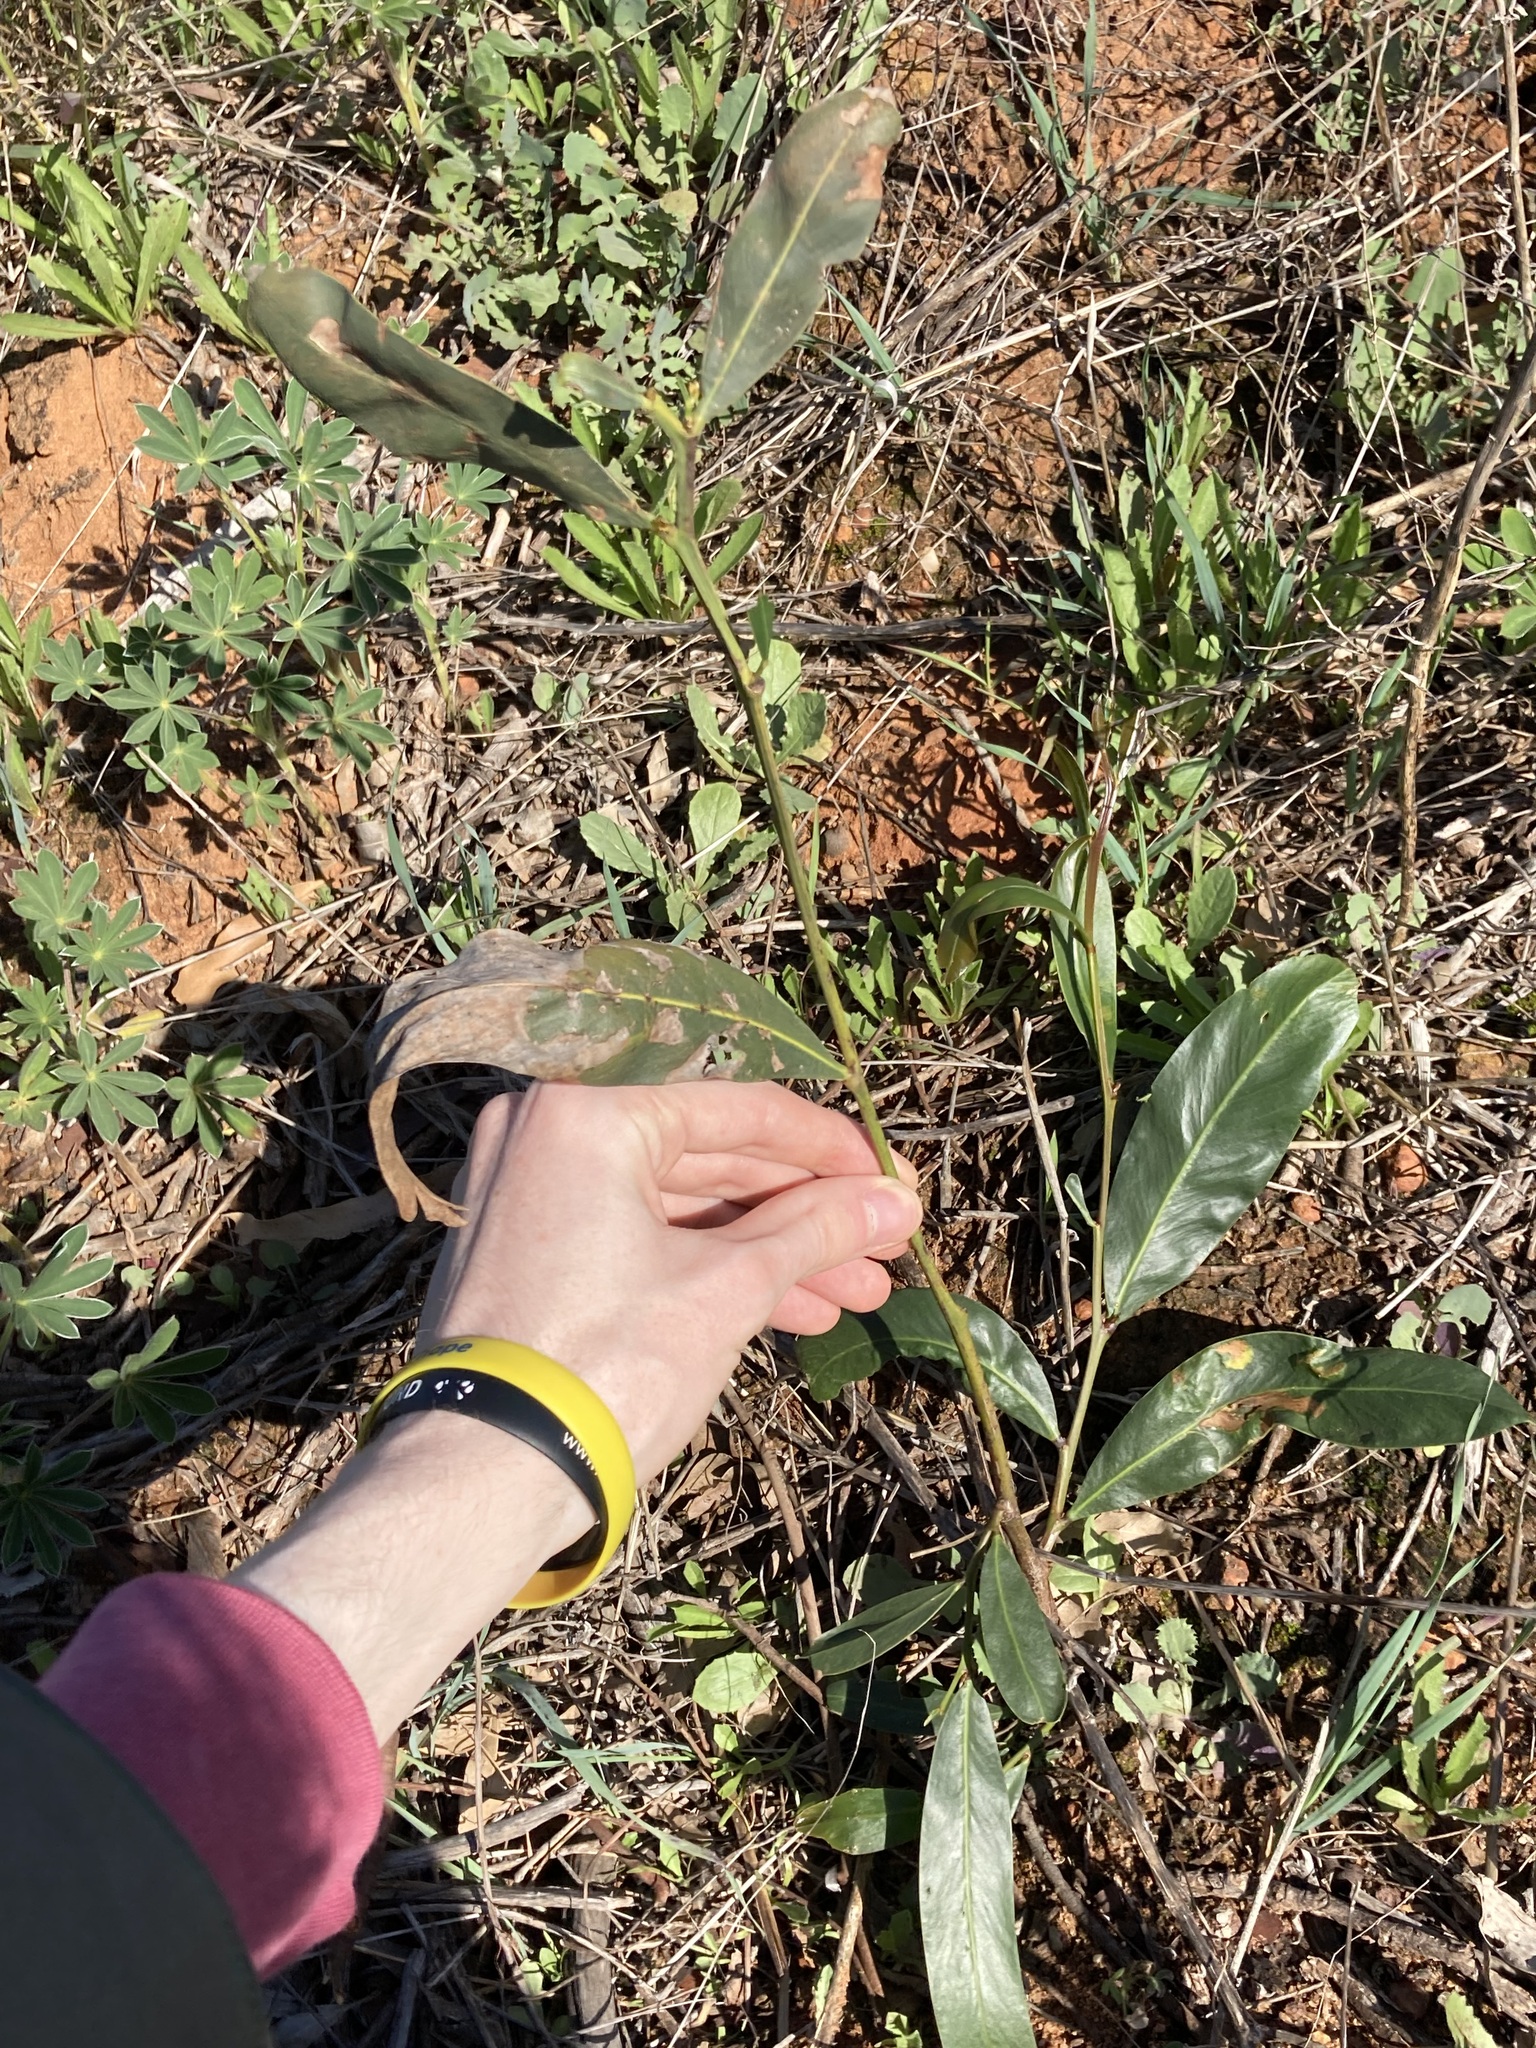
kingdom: Plantae
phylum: Tracheophyta
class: Magnoliopsida
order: Fabales
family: Fabaceae
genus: Acacia
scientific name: Acacia saligna
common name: Orange wattle
